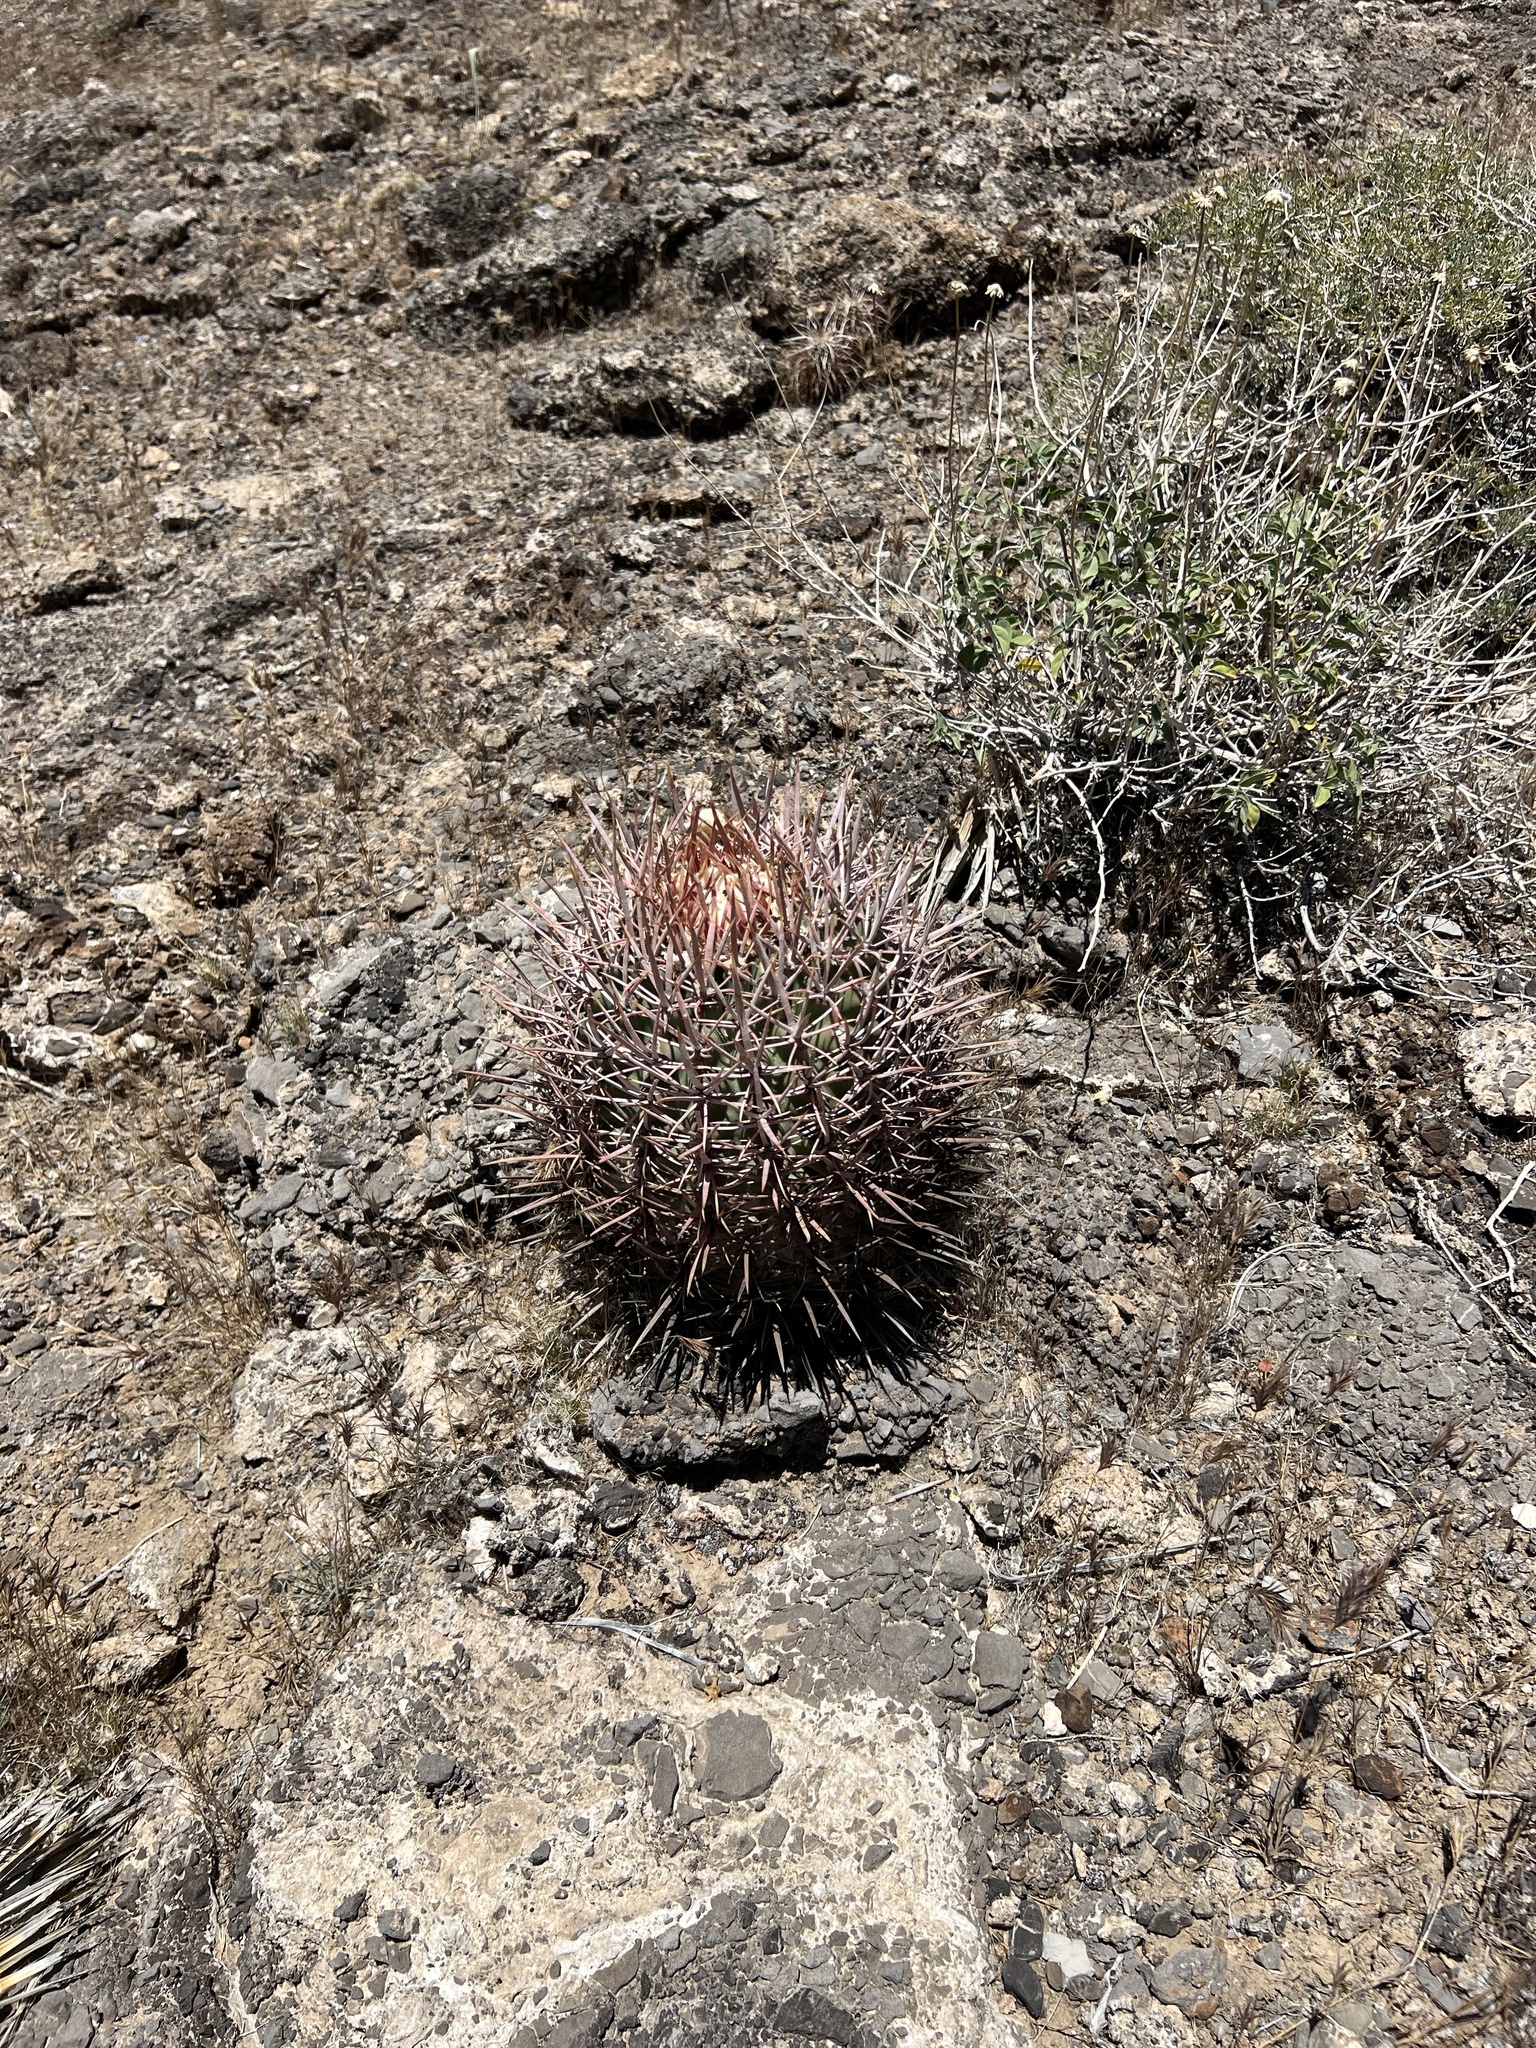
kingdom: Plantae
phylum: Tracheophyta
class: Magnoliopsida
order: Caryophyllales
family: Cactaceae
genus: Echinocactus
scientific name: Echinocactus polycephalus
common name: Cottontop cactus
